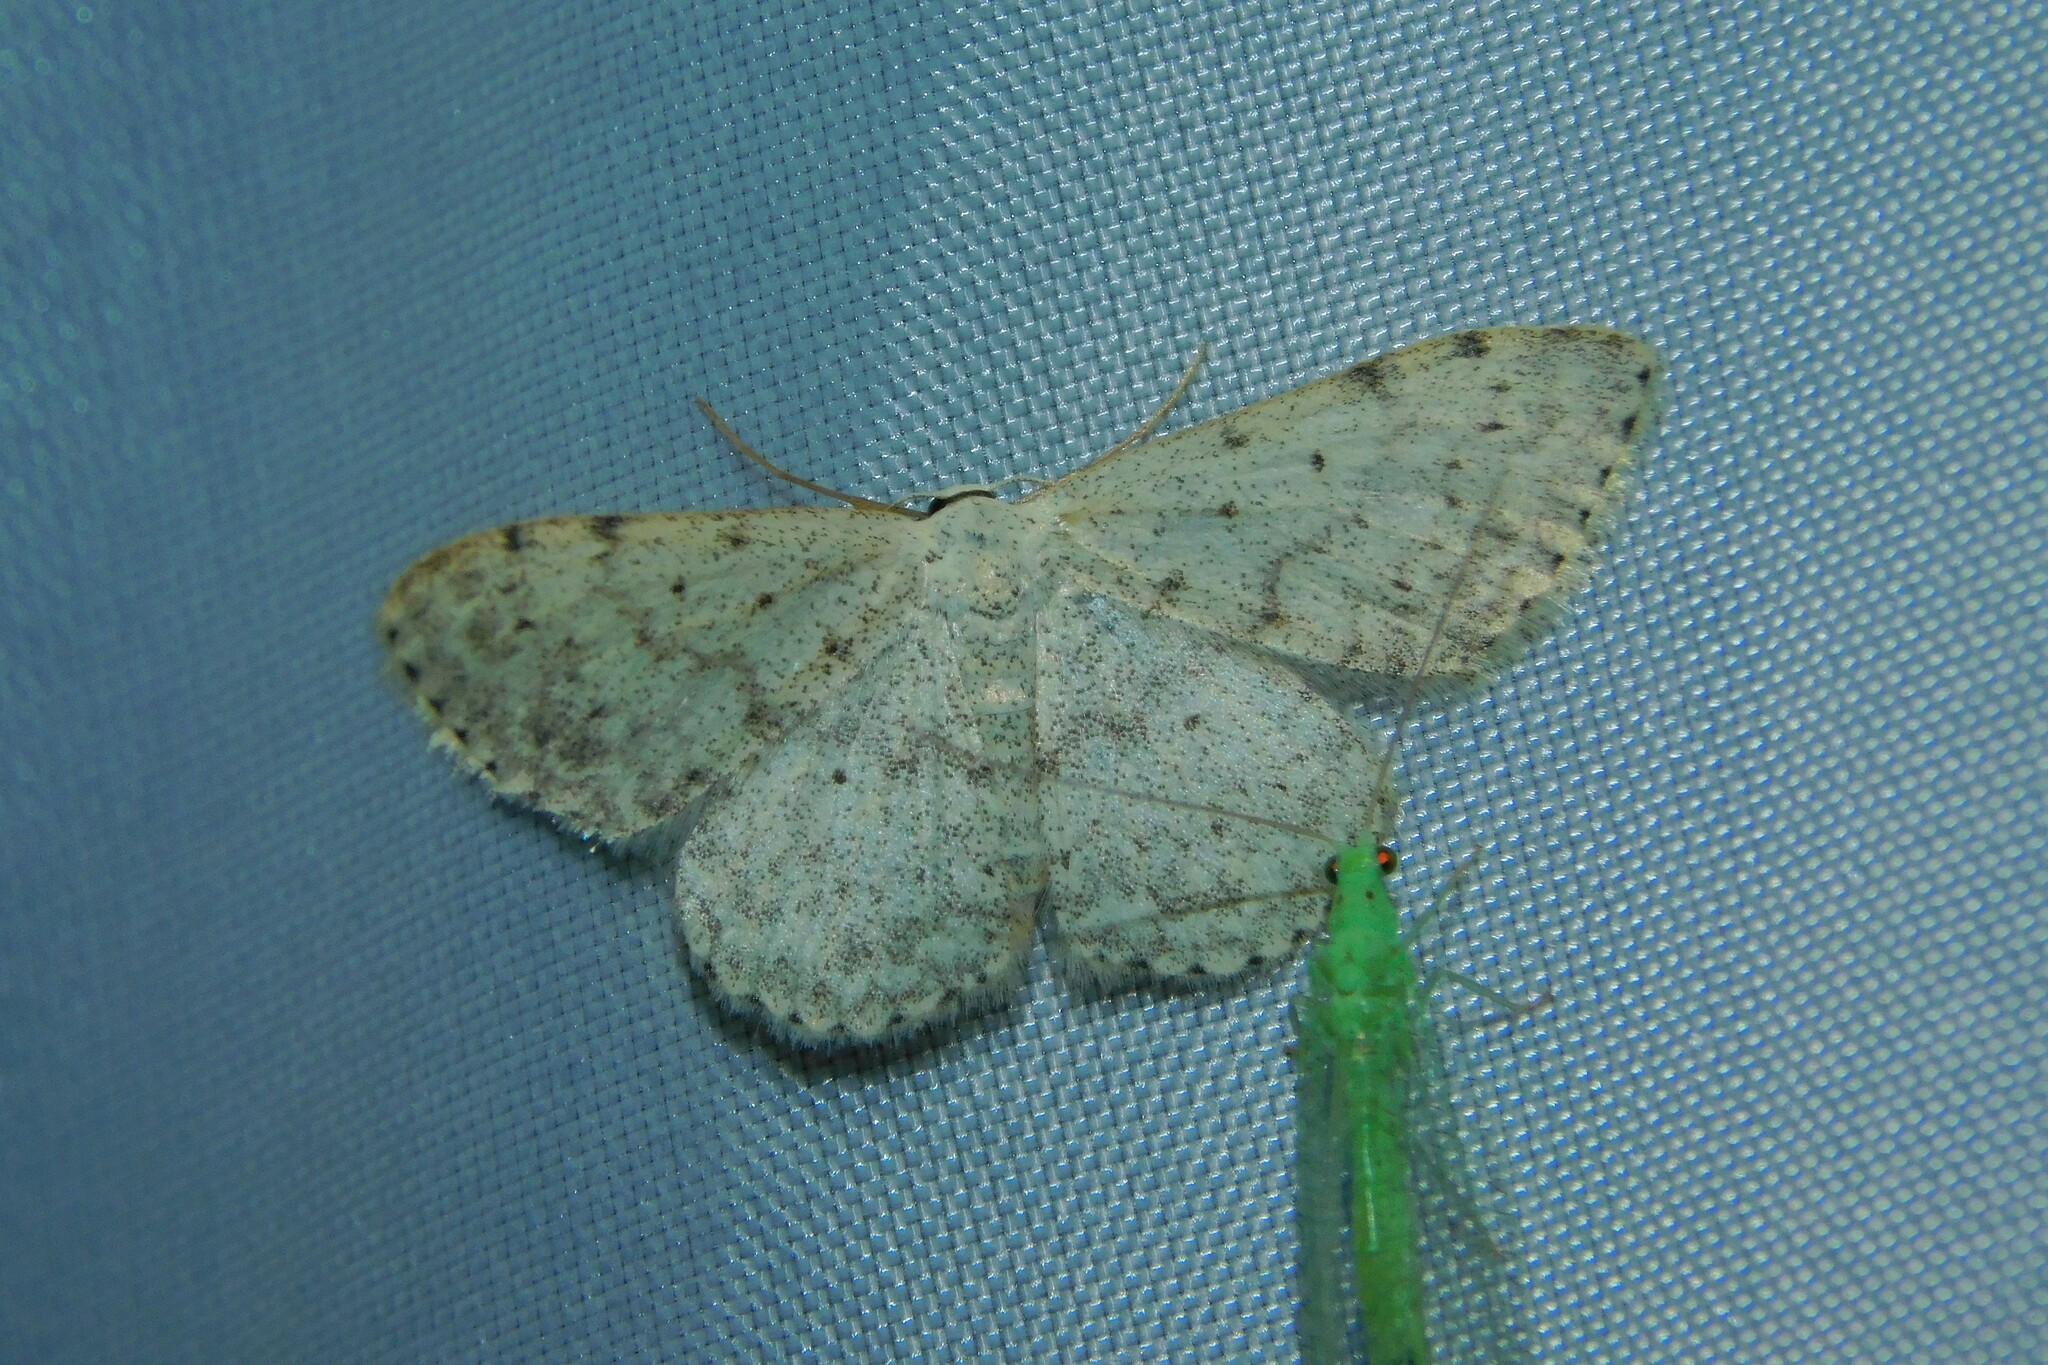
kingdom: Animalia
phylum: Arthropoda
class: Insecta
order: Lepidoptera
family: Geometridae
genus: Scopula
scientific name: Scopula marginepunctata
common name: Mullein wave
